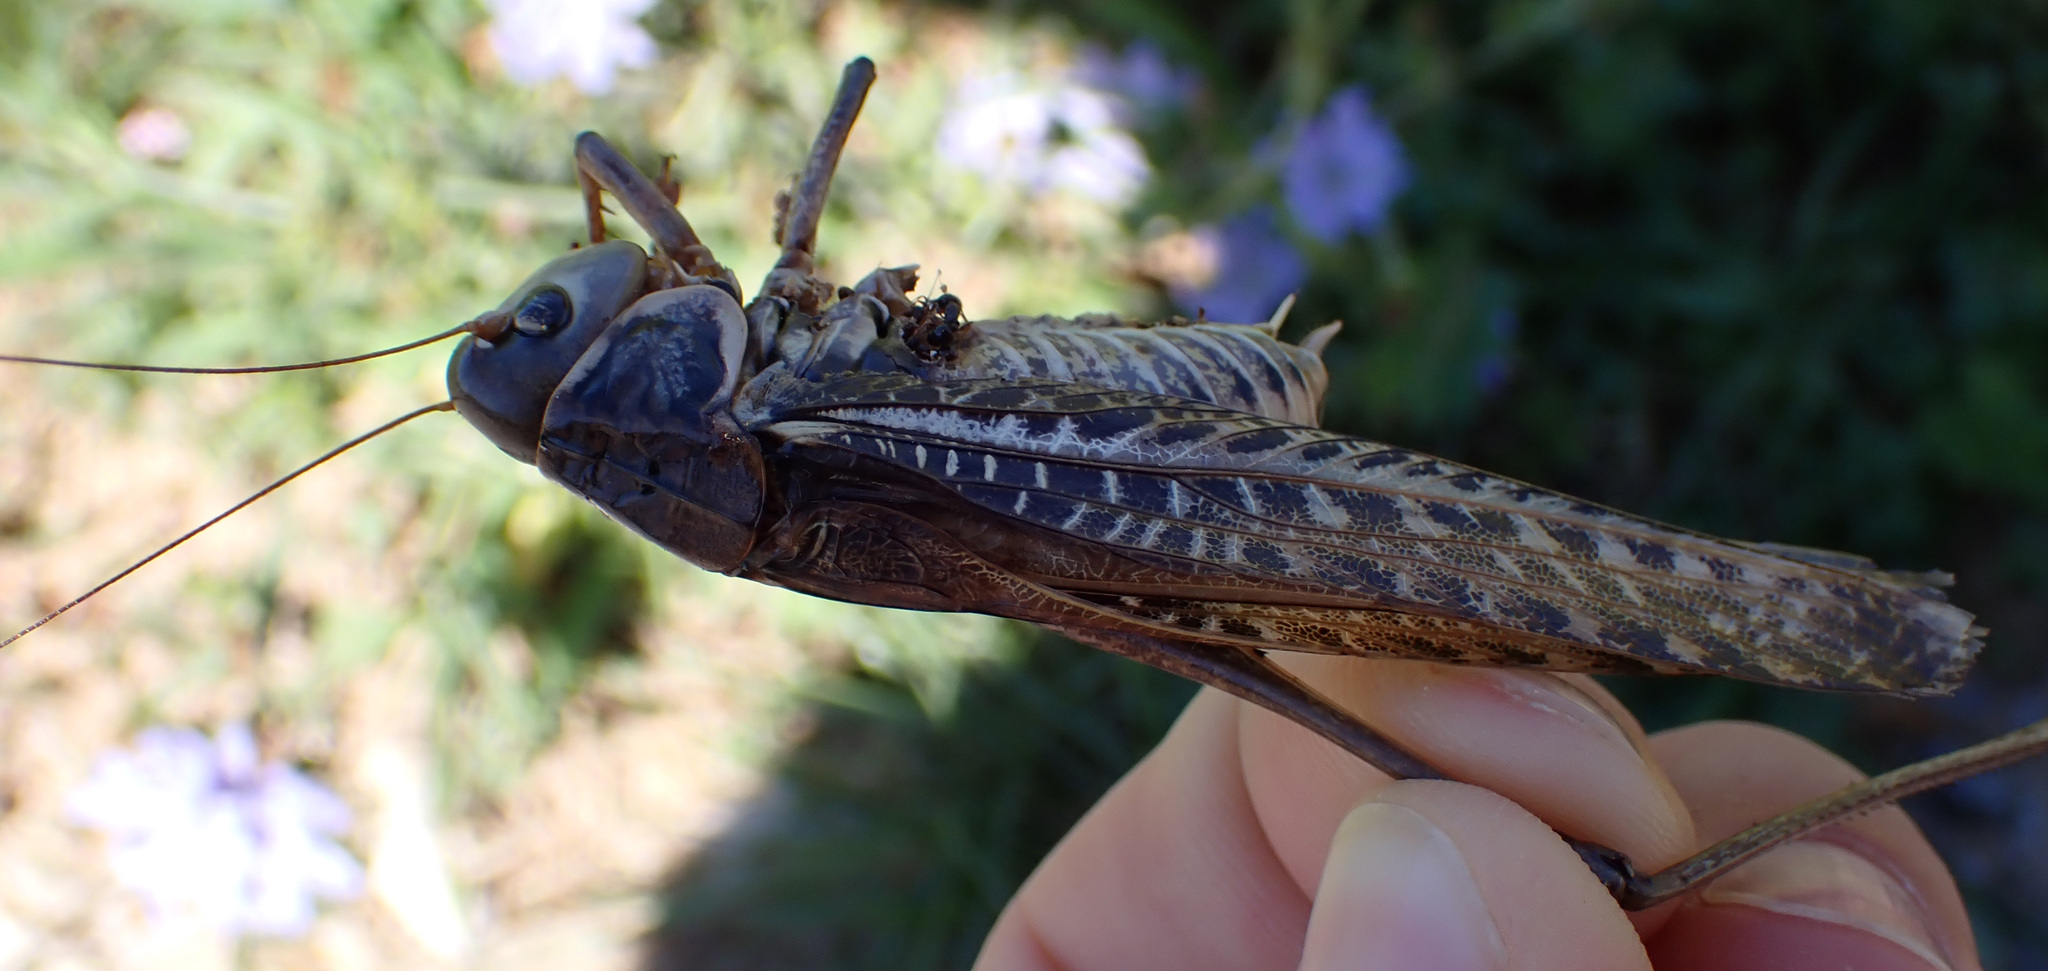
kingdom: Animalia
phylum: Arthropoda
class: Insecta
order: Orthoptera
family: Tettigoniidae
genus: Decticus
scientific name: Decticus albifrons
